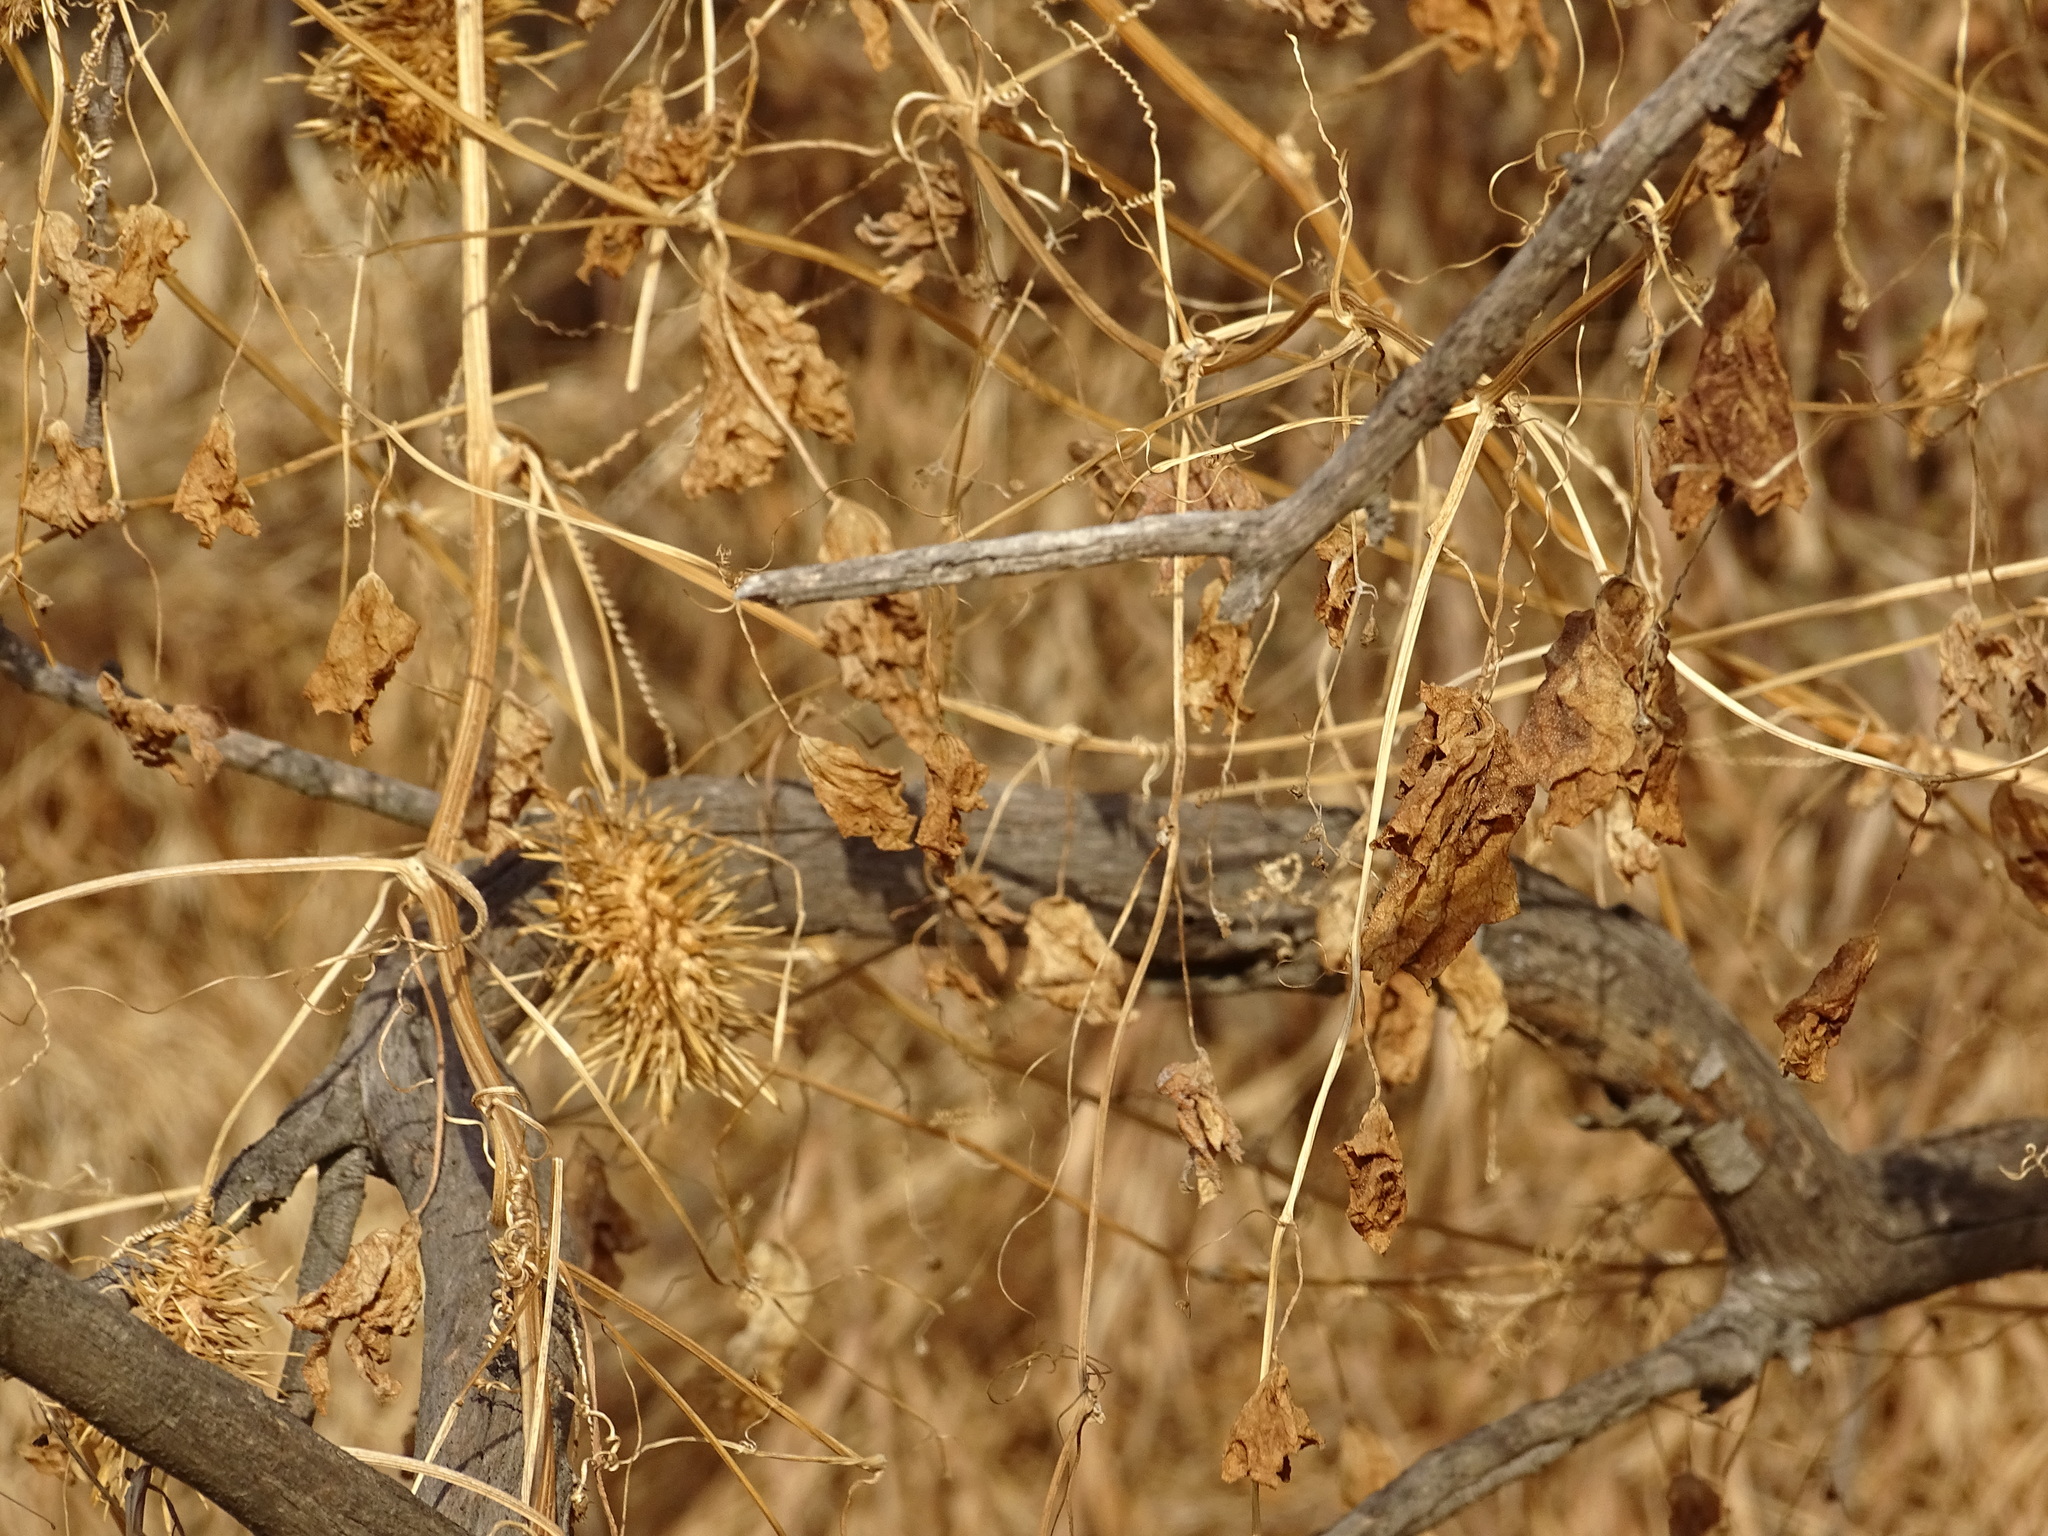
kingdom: Plantae
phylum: Tracheophyta
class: Magnoliopsida
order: Cucurbitales
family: Cucurbitaceae
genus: Marah
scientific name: Marah macrocarpa
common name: Cucamonga manroot
